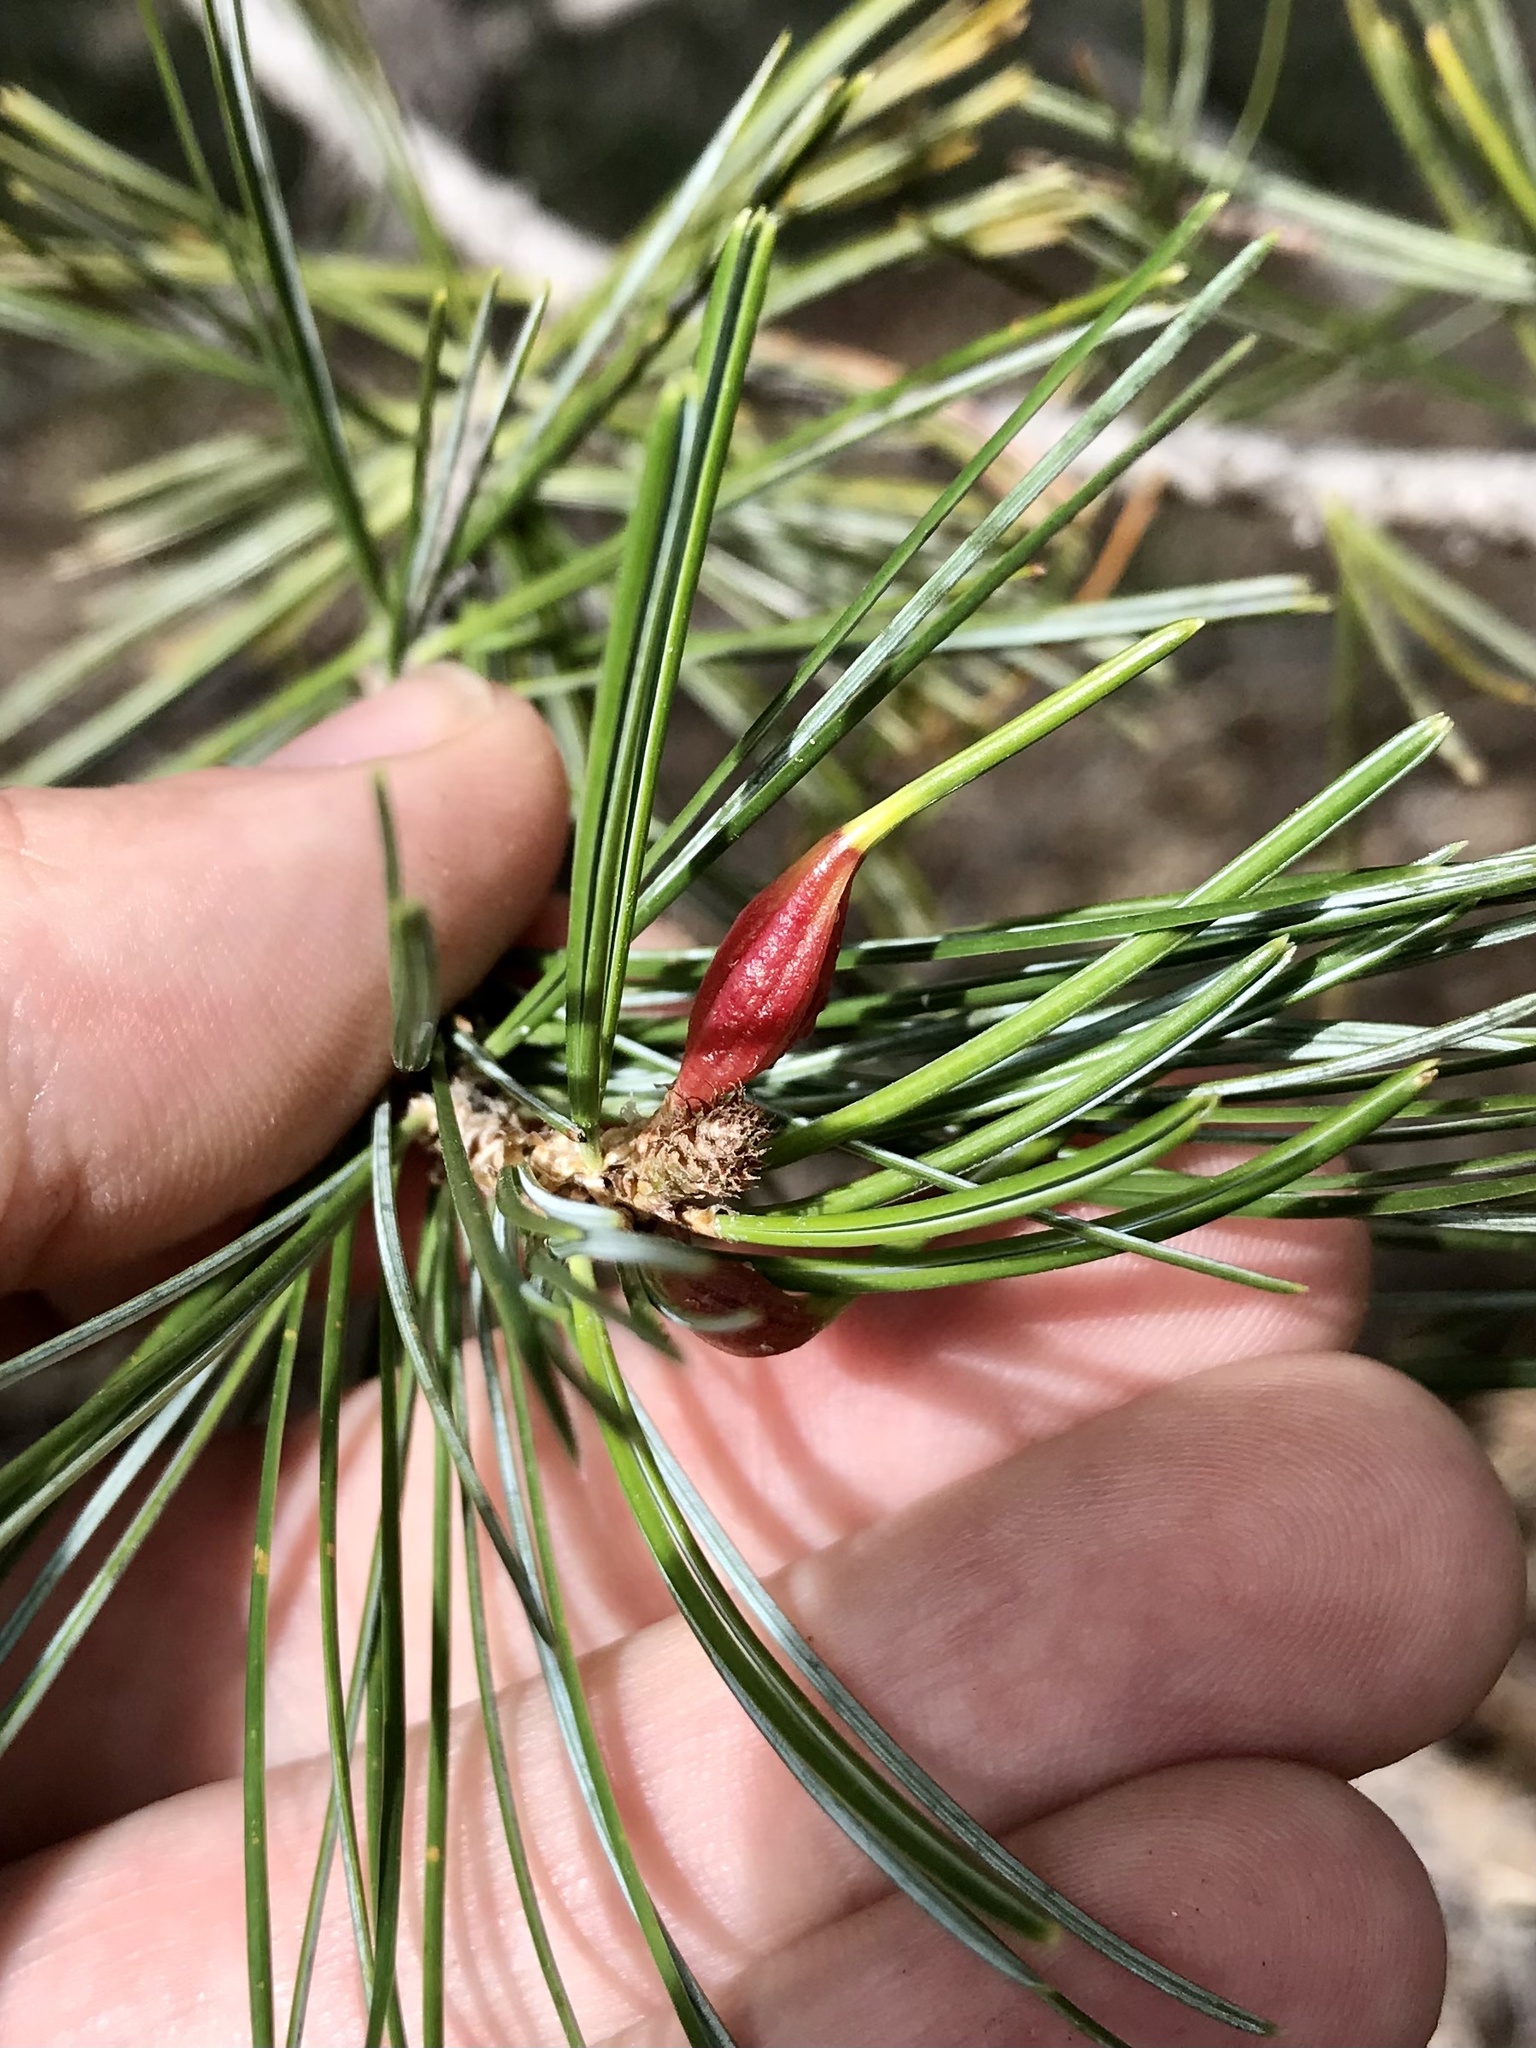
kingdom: Animalia
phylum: Arthropoda
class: Insecta
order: Diptera
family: Cecidomyiidae
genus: Pinyonia
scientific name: Pinyonia edulicola
